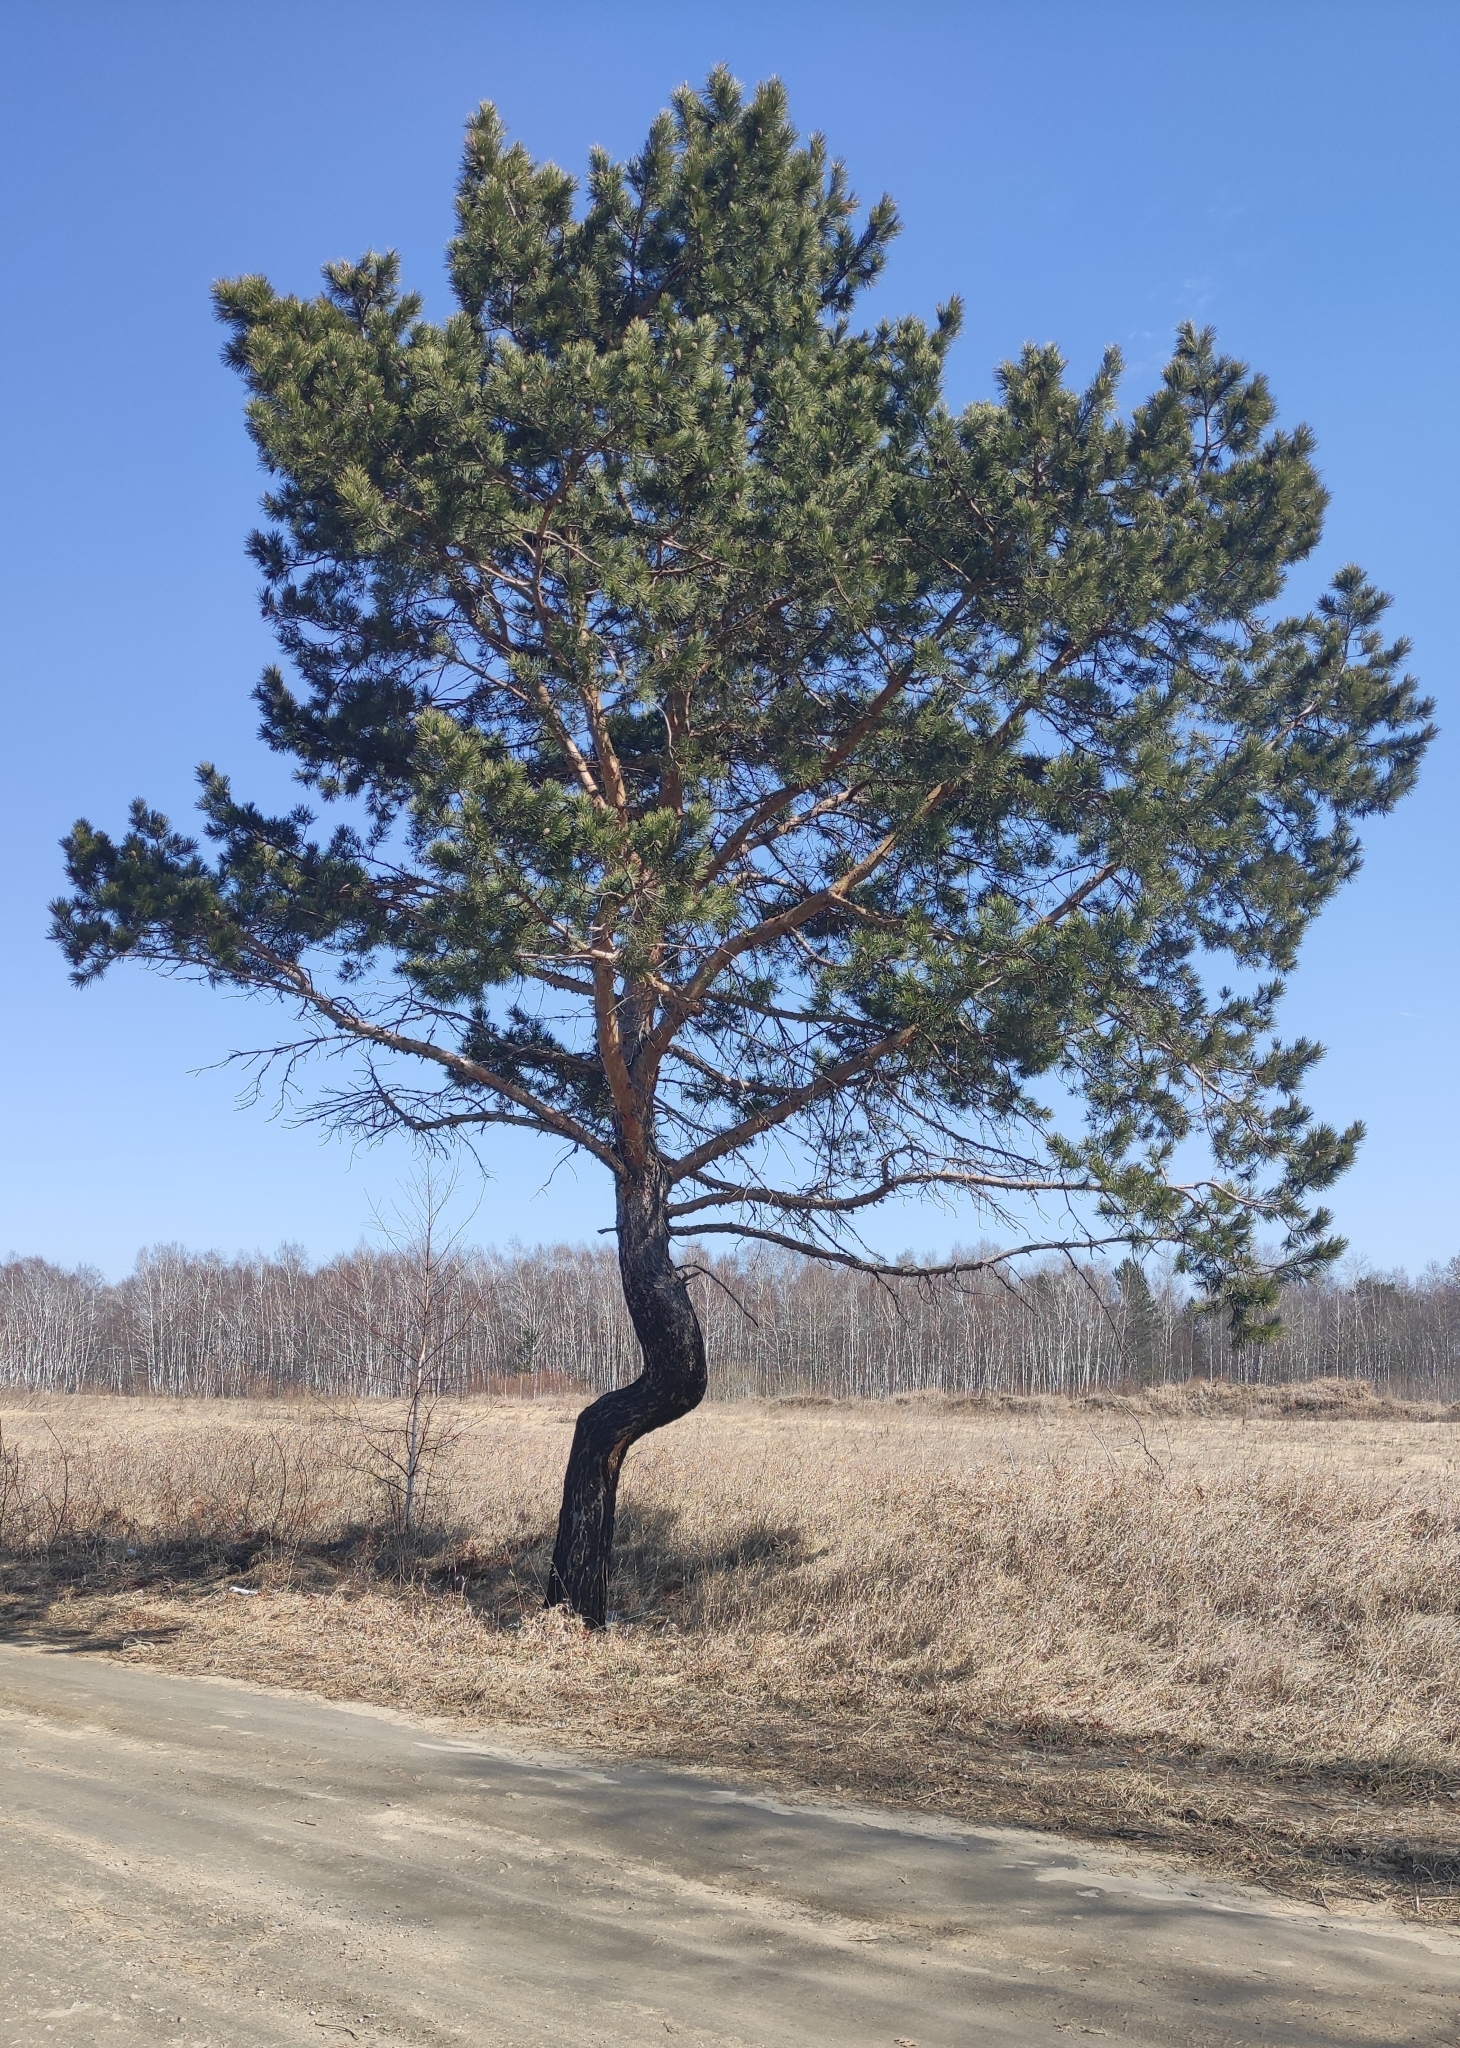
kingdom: Plantae
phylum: Tracheophyta
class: Pinopsida
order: Pinales
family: Pinaceae
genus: Pinus
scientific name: Pinus sylvestris
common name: Scots pine
